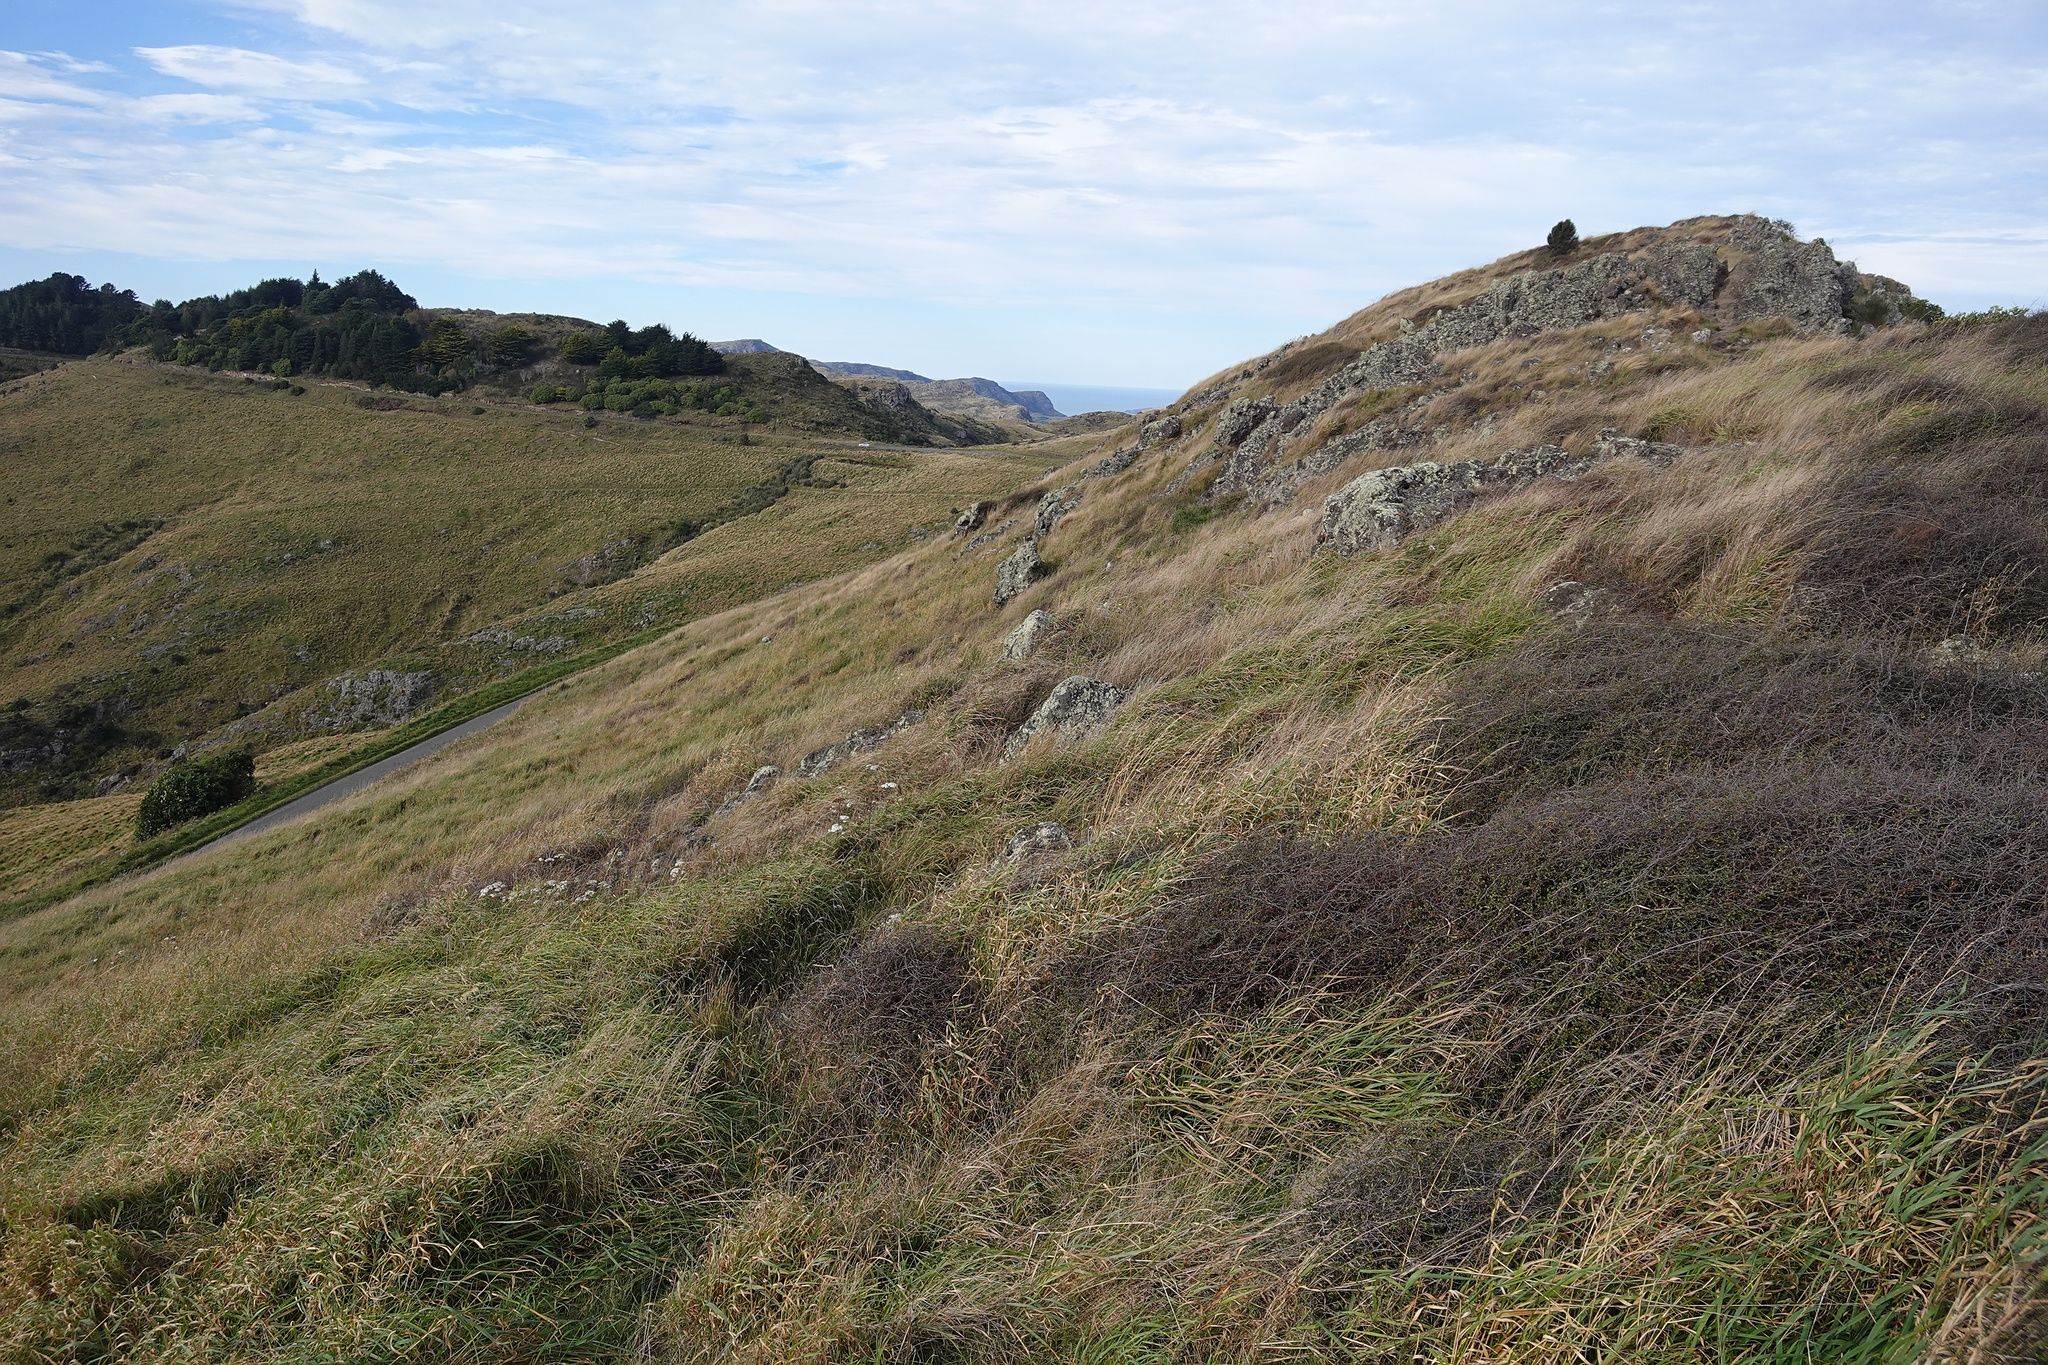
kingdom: Plantae
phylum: Tracheophyta
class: Magnoliopsida
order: Caryophyllales
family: Polygonaceae
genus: Muehlenbeckia
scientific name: Muehlenbeckia complexa
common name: Wireplant
